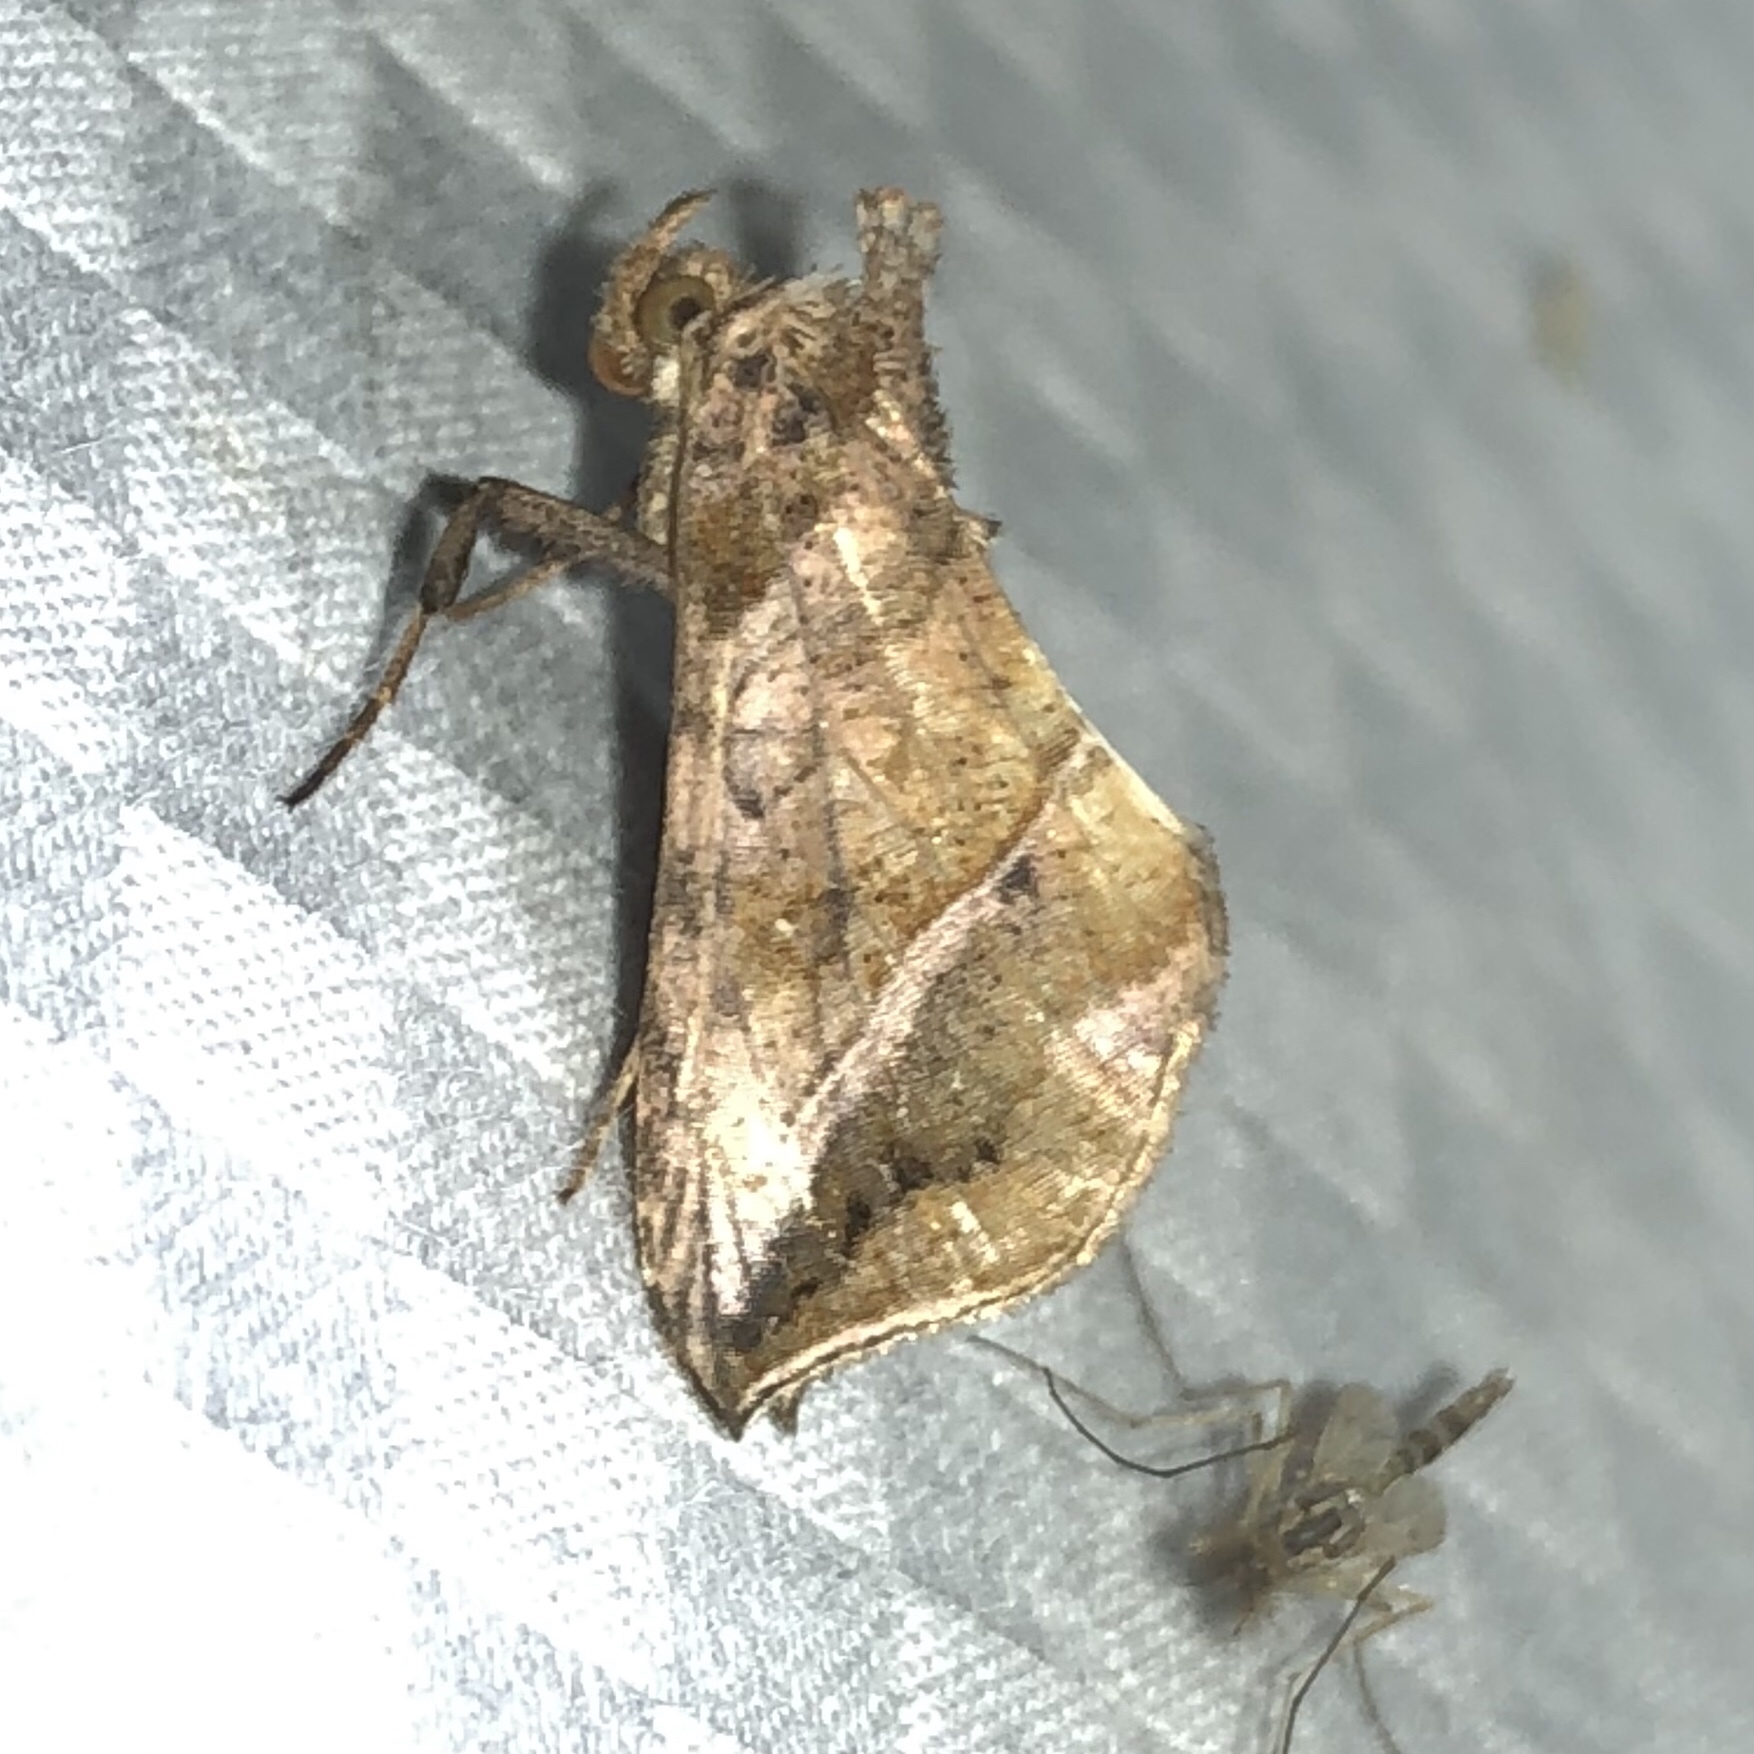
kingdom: Animalia
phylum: Arthropoda
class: Insecta
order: Lepidoptera
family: Noctuidae
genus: Pseudeva
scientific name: Pseudeva purpurigera
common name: Straight-lined looper moth
